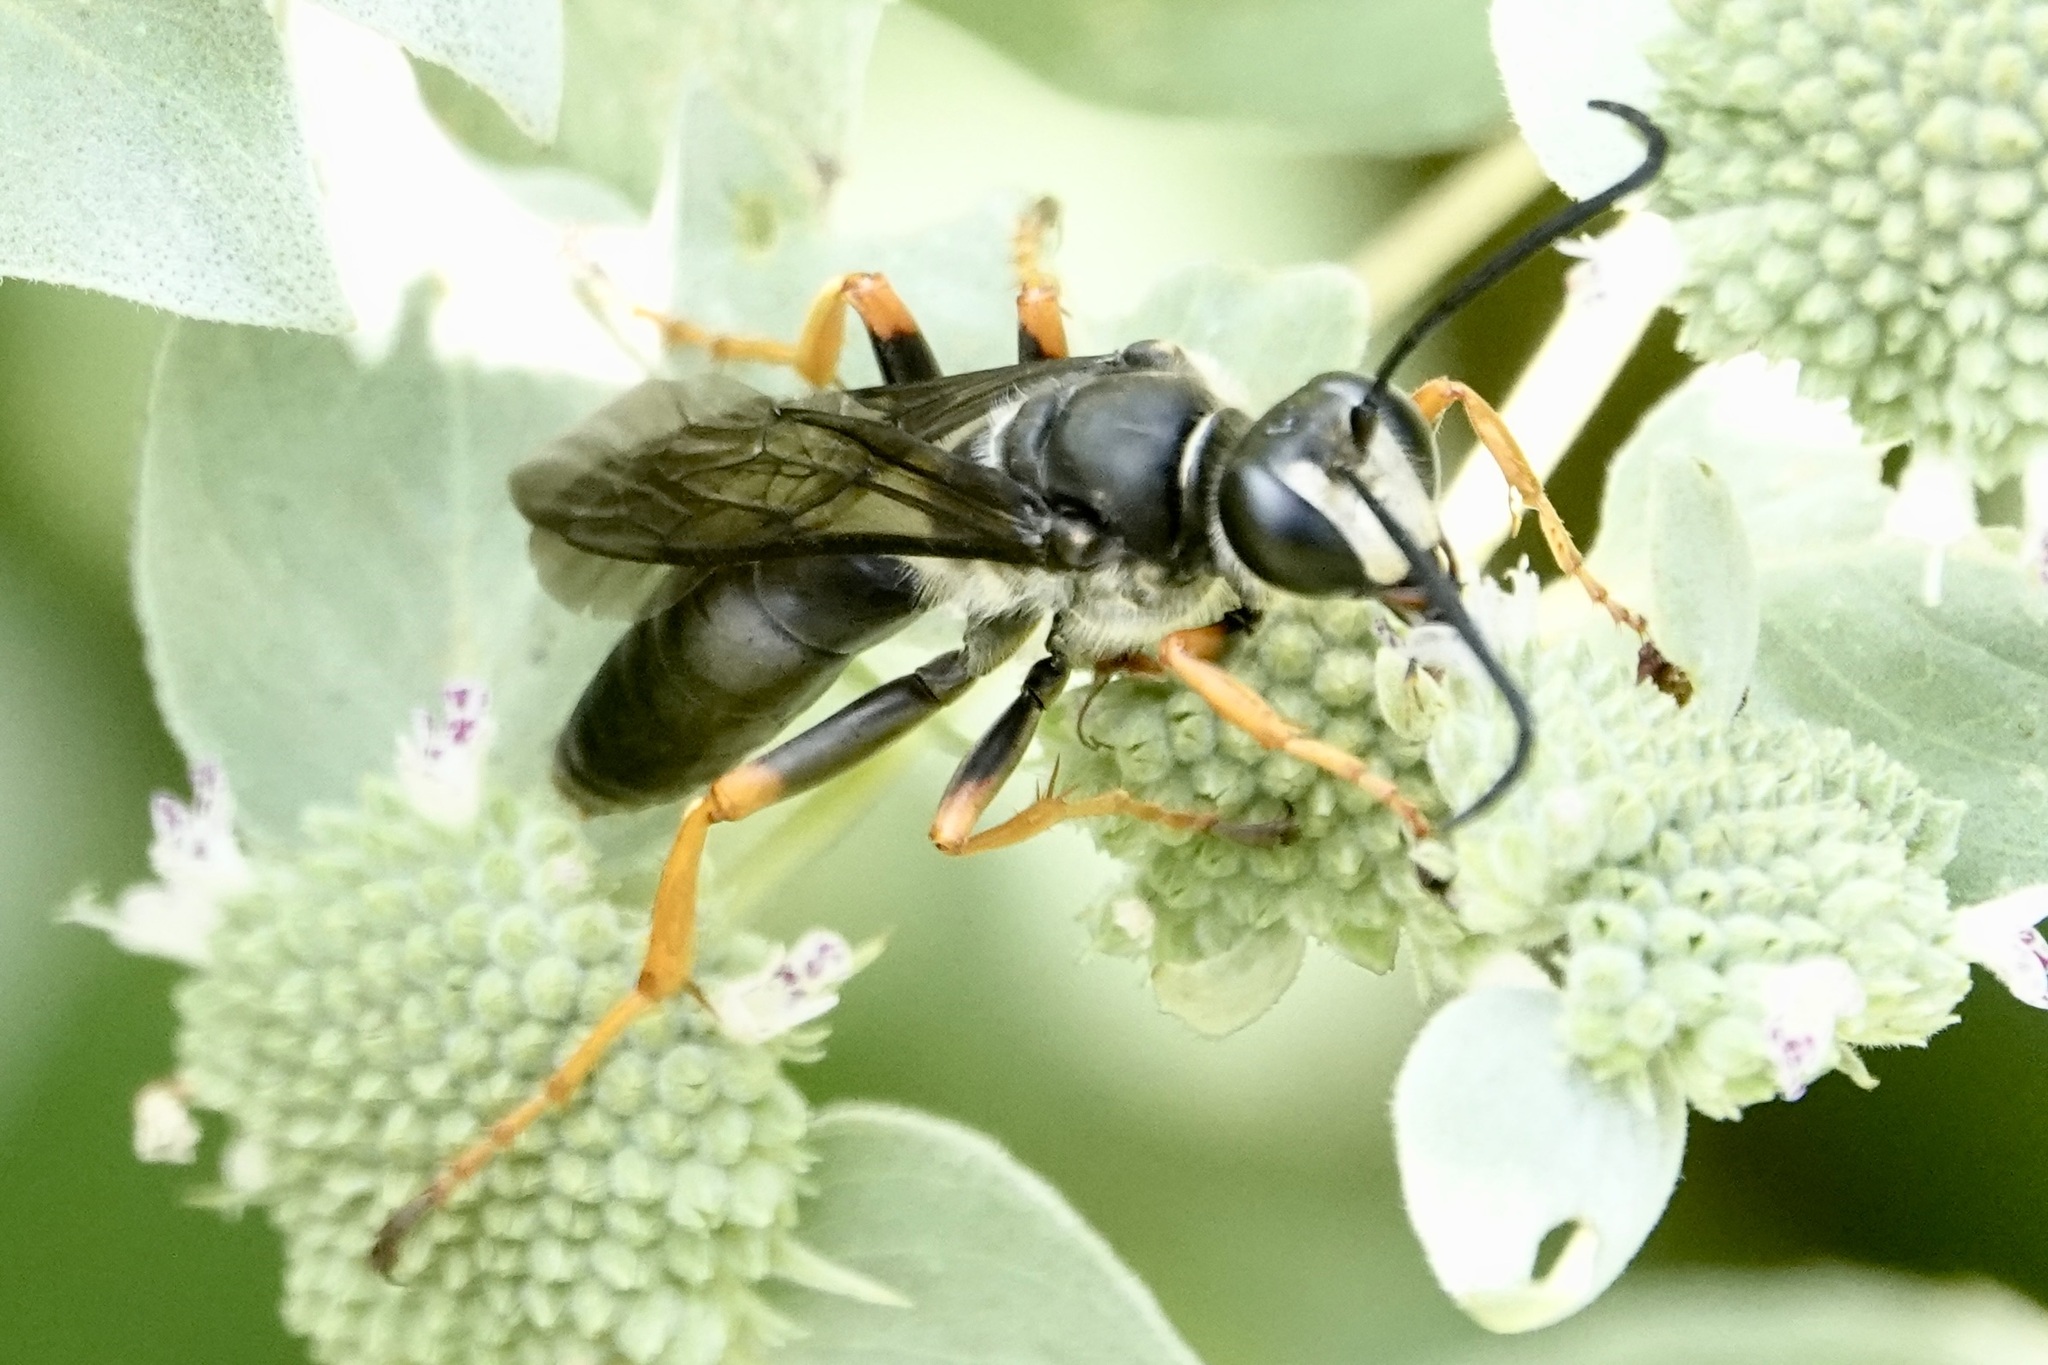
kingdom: Animalia
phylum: Arthropoda
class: Insecta
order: Hymenoptera
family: Sphecidae
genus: Sphex
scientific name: Sphex nudus
